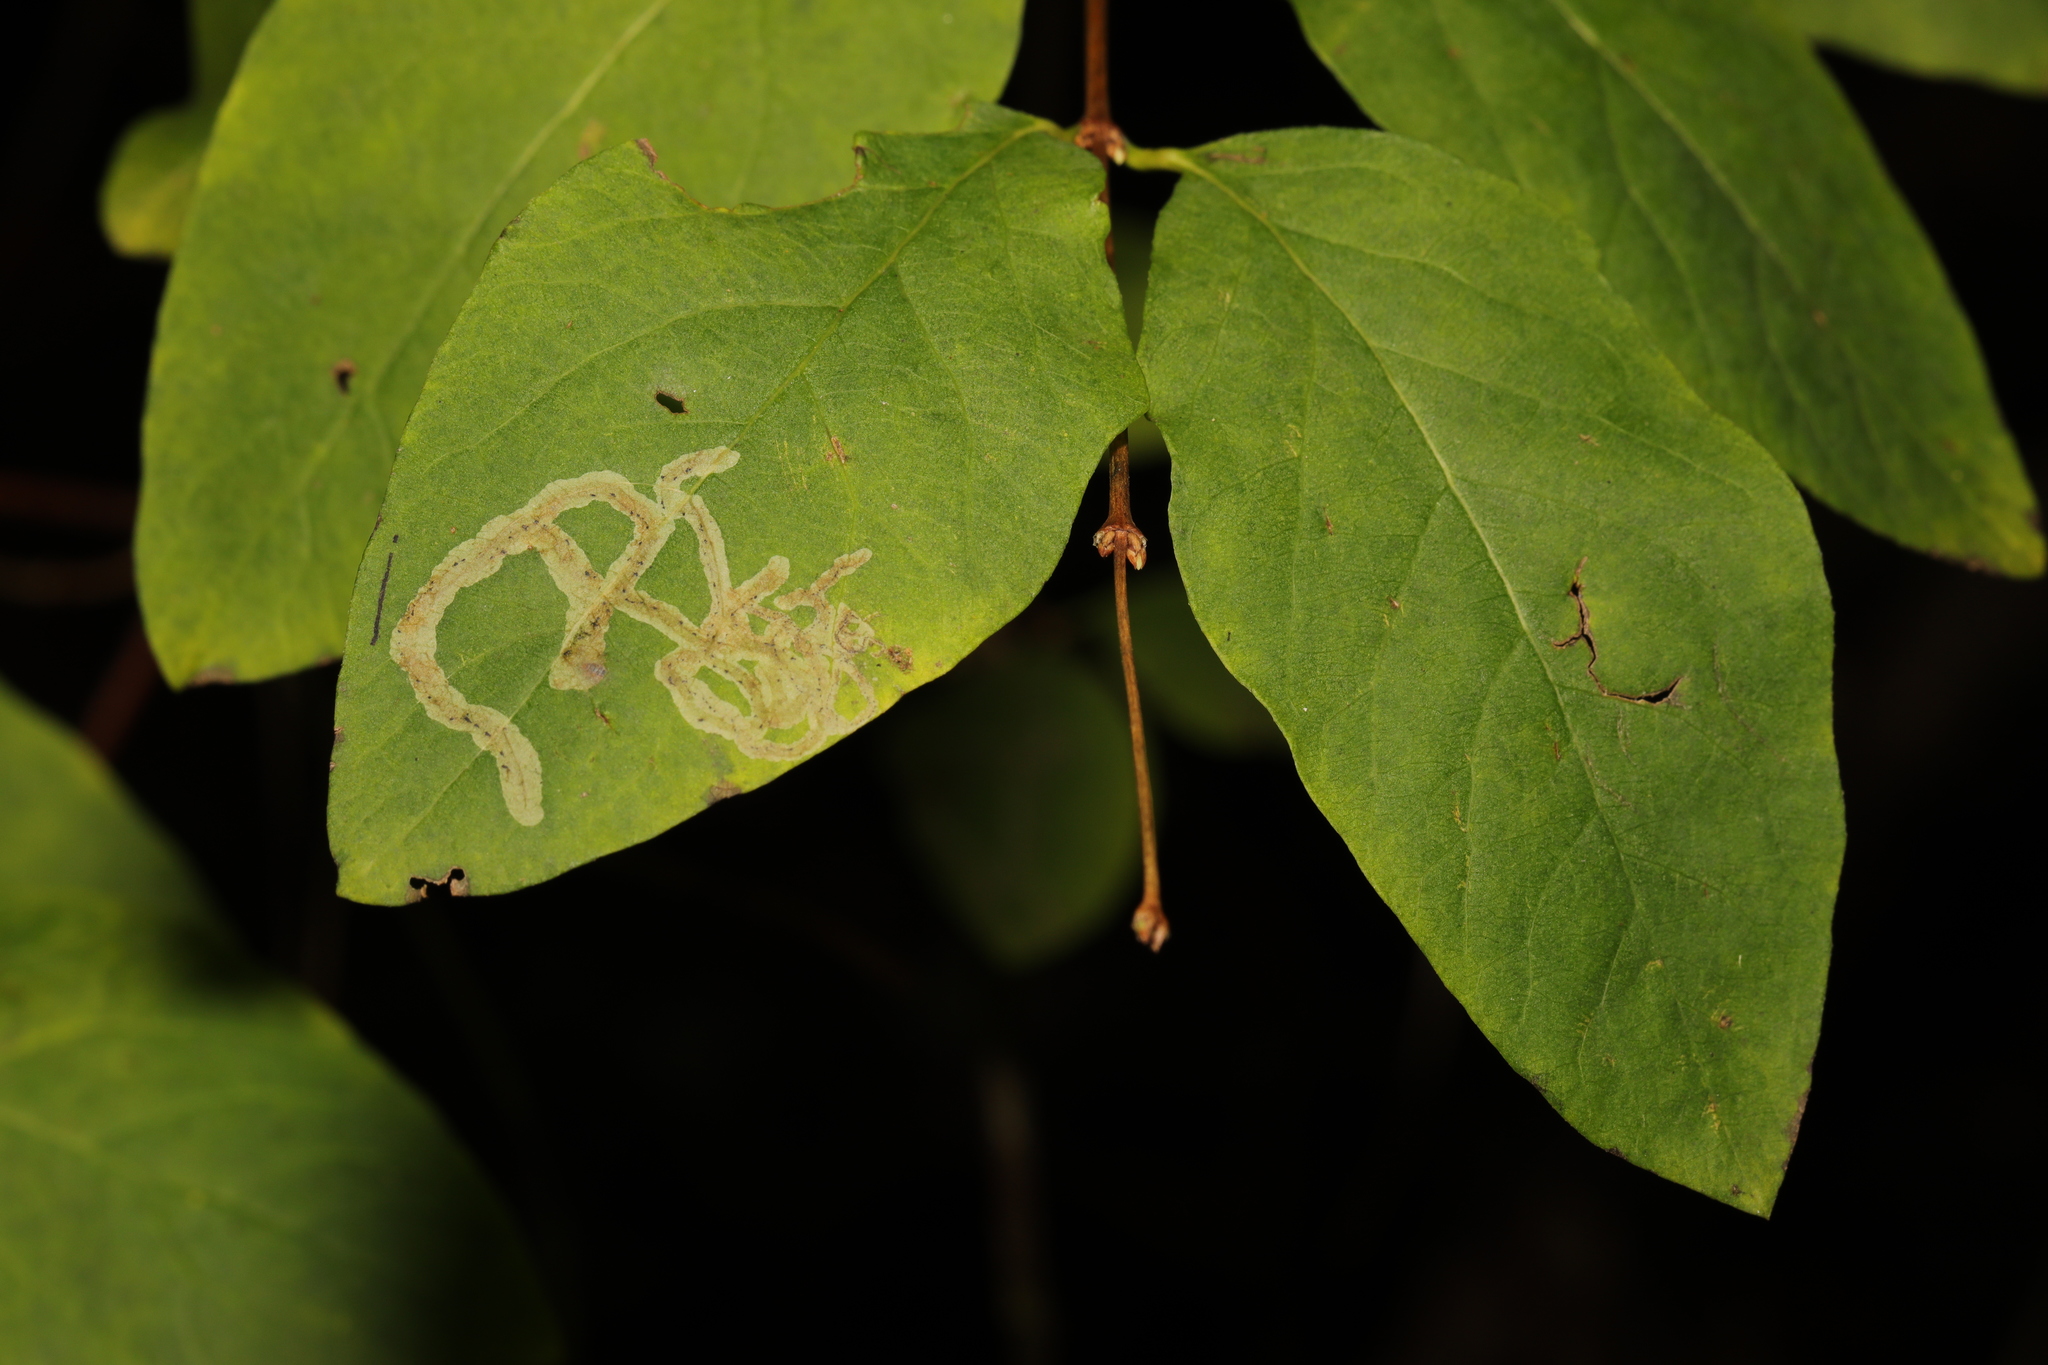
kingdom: Animalia
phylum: Arthropoda
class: Insecta
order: Diptera
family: Agromyzidae
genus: Phytomyza
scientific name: Phytomyza lonicerae
